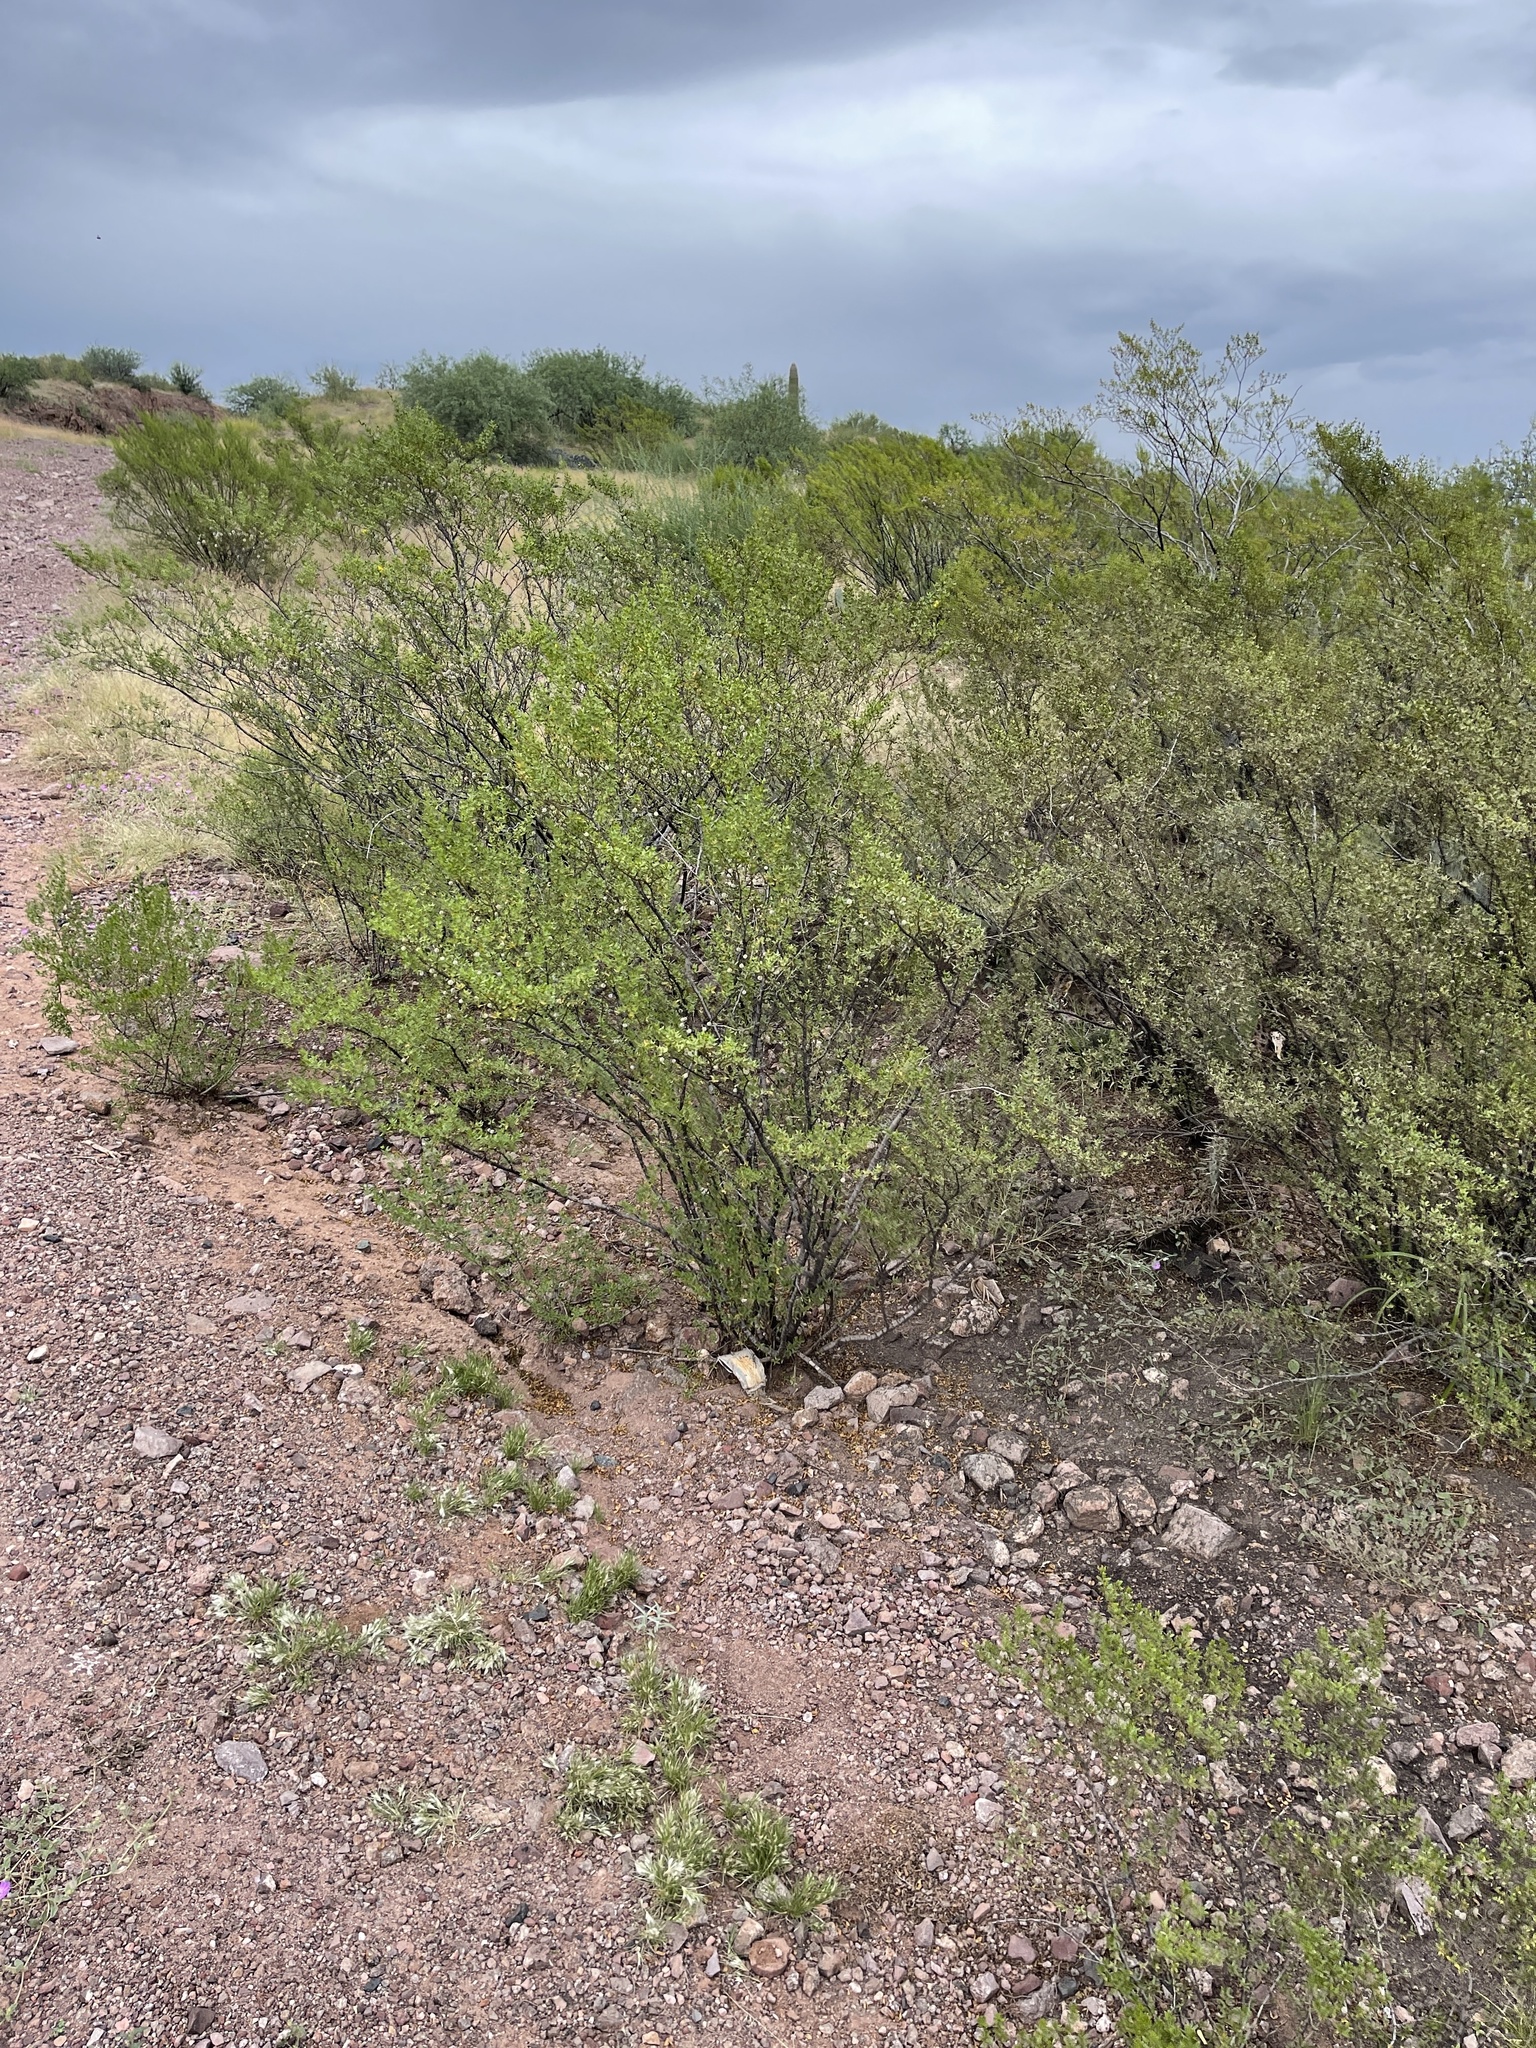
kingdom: Plantae
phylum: Tracheophyta
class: Magnoliopsida
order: Zygophyllales
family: Zygophyllaceae
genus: Larrea
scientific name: Larrea tridentata
